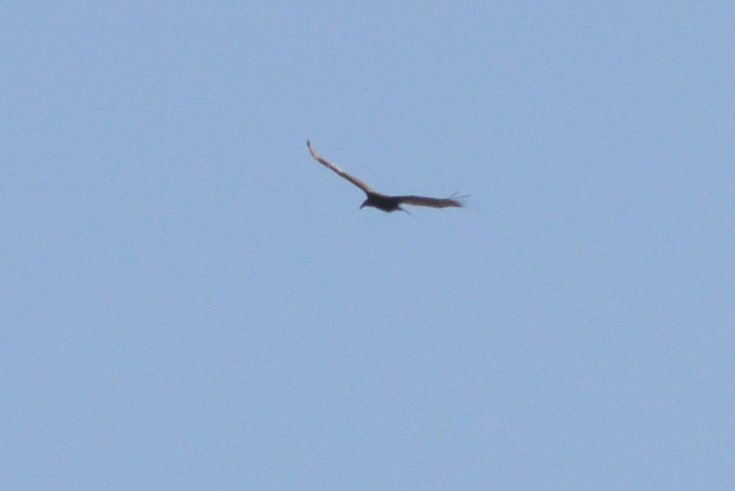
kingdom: Animalia
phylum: Chordata
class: Aves
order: Accipitriformes
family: Cathartidae
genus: Cathartes
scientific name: Cathartes aura
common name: Turkey vulture
